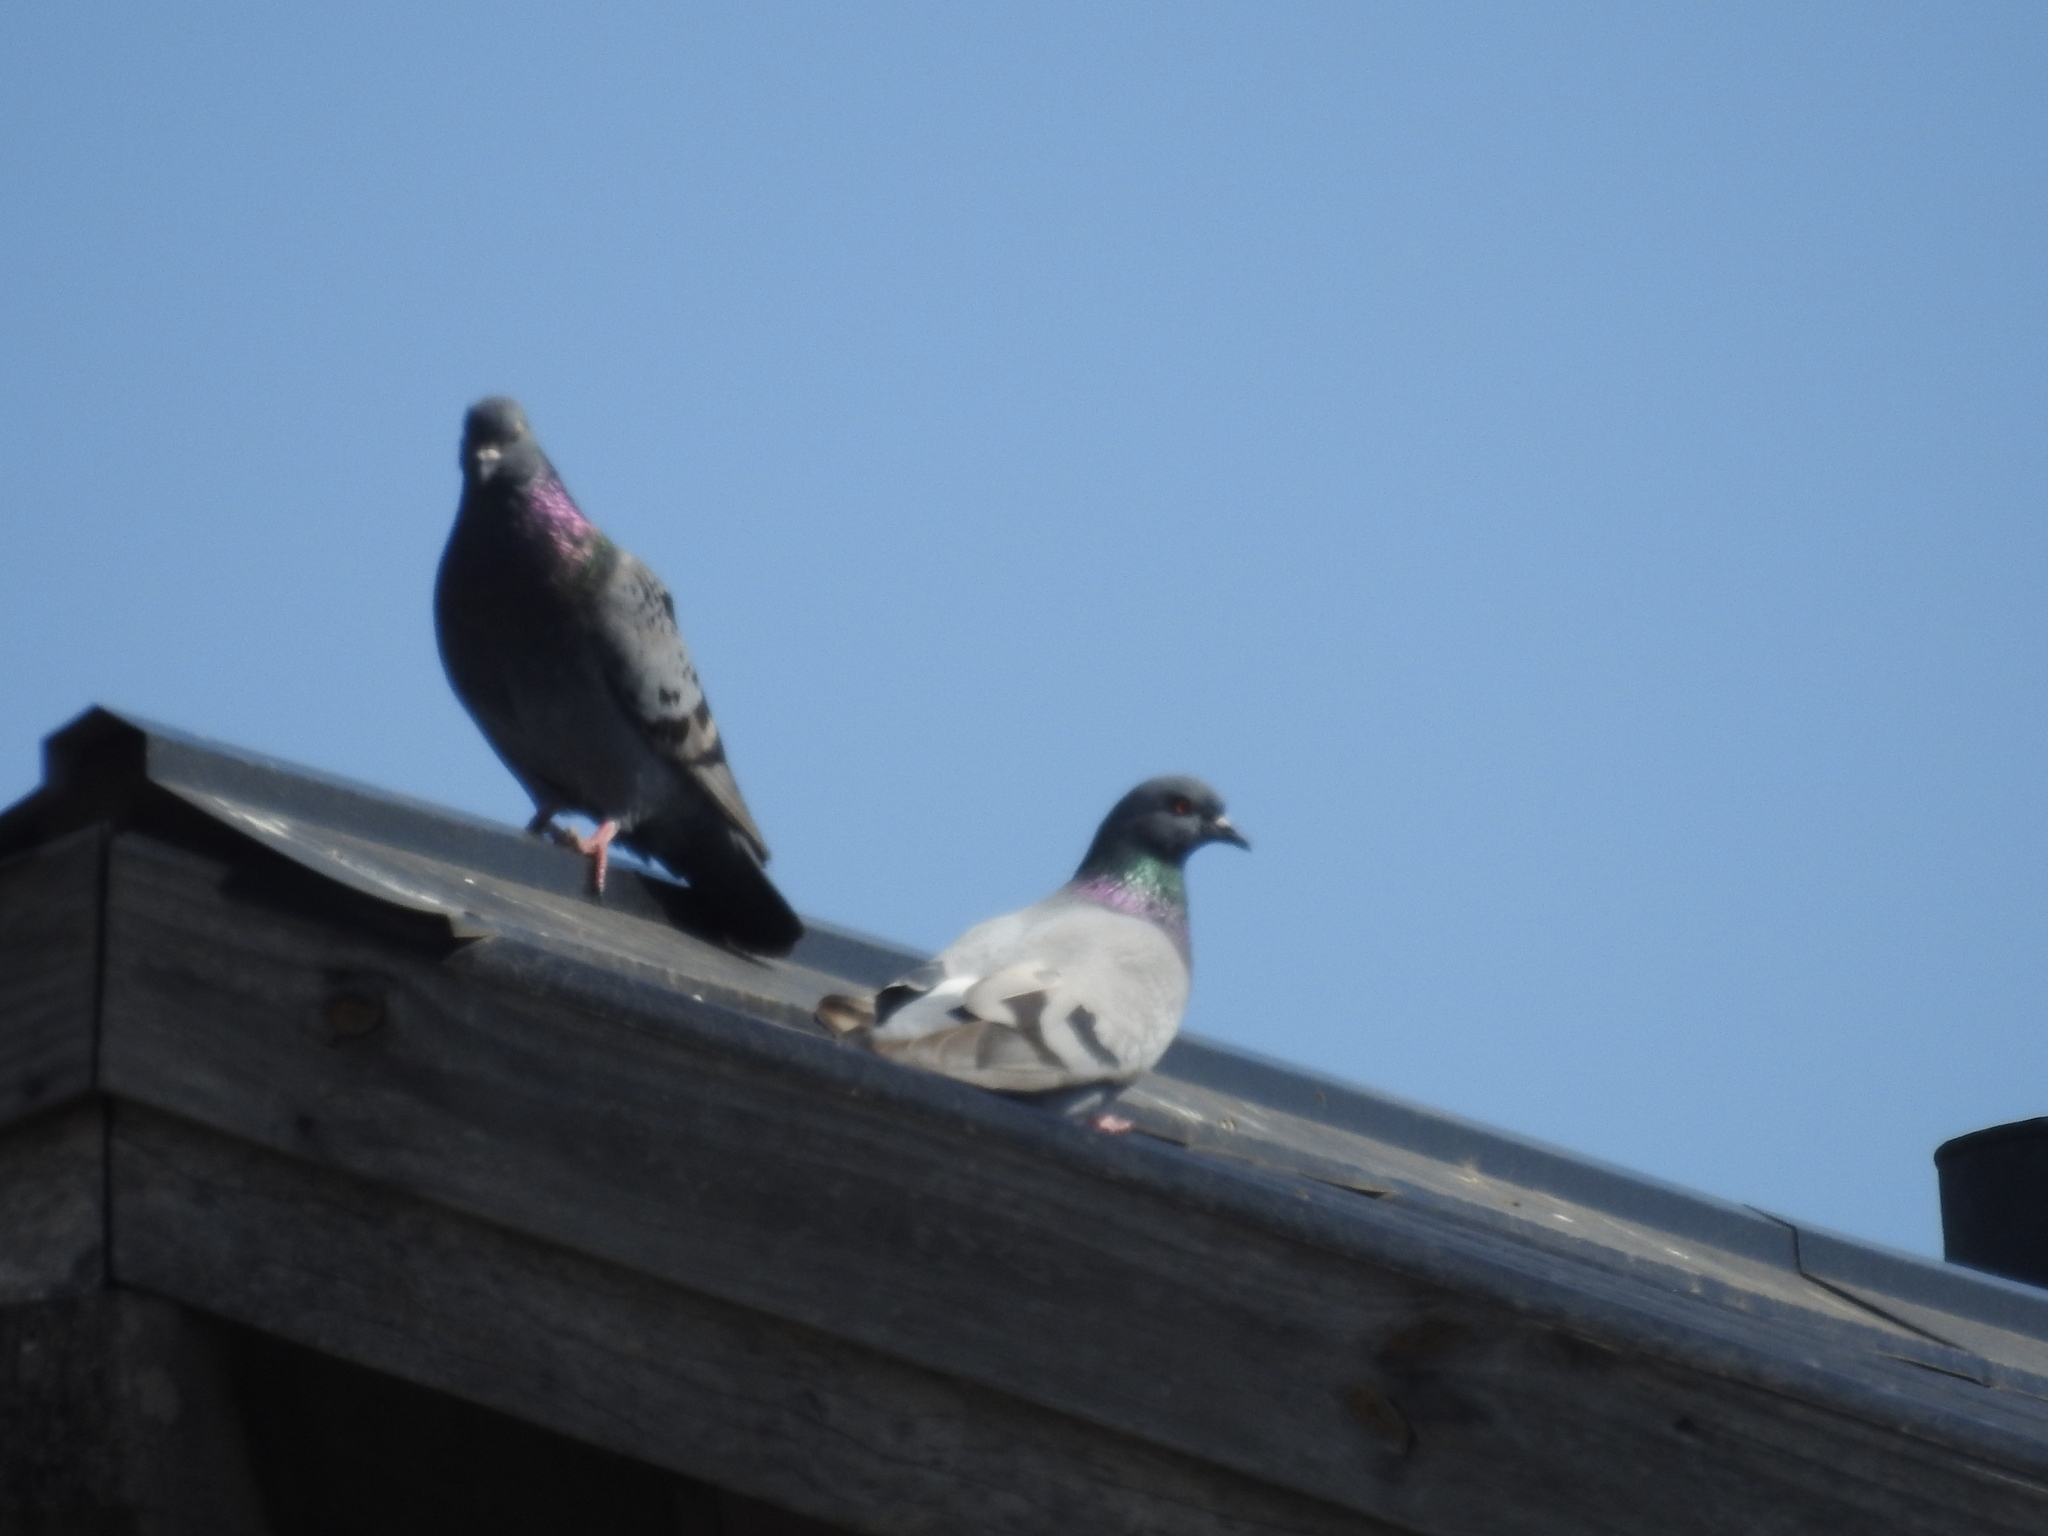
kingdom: Animalia
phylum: Chordata
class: Aves
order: Columbiformes
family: Columbidae
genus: Columba
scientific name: Columba livia
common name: Rock pigeon
